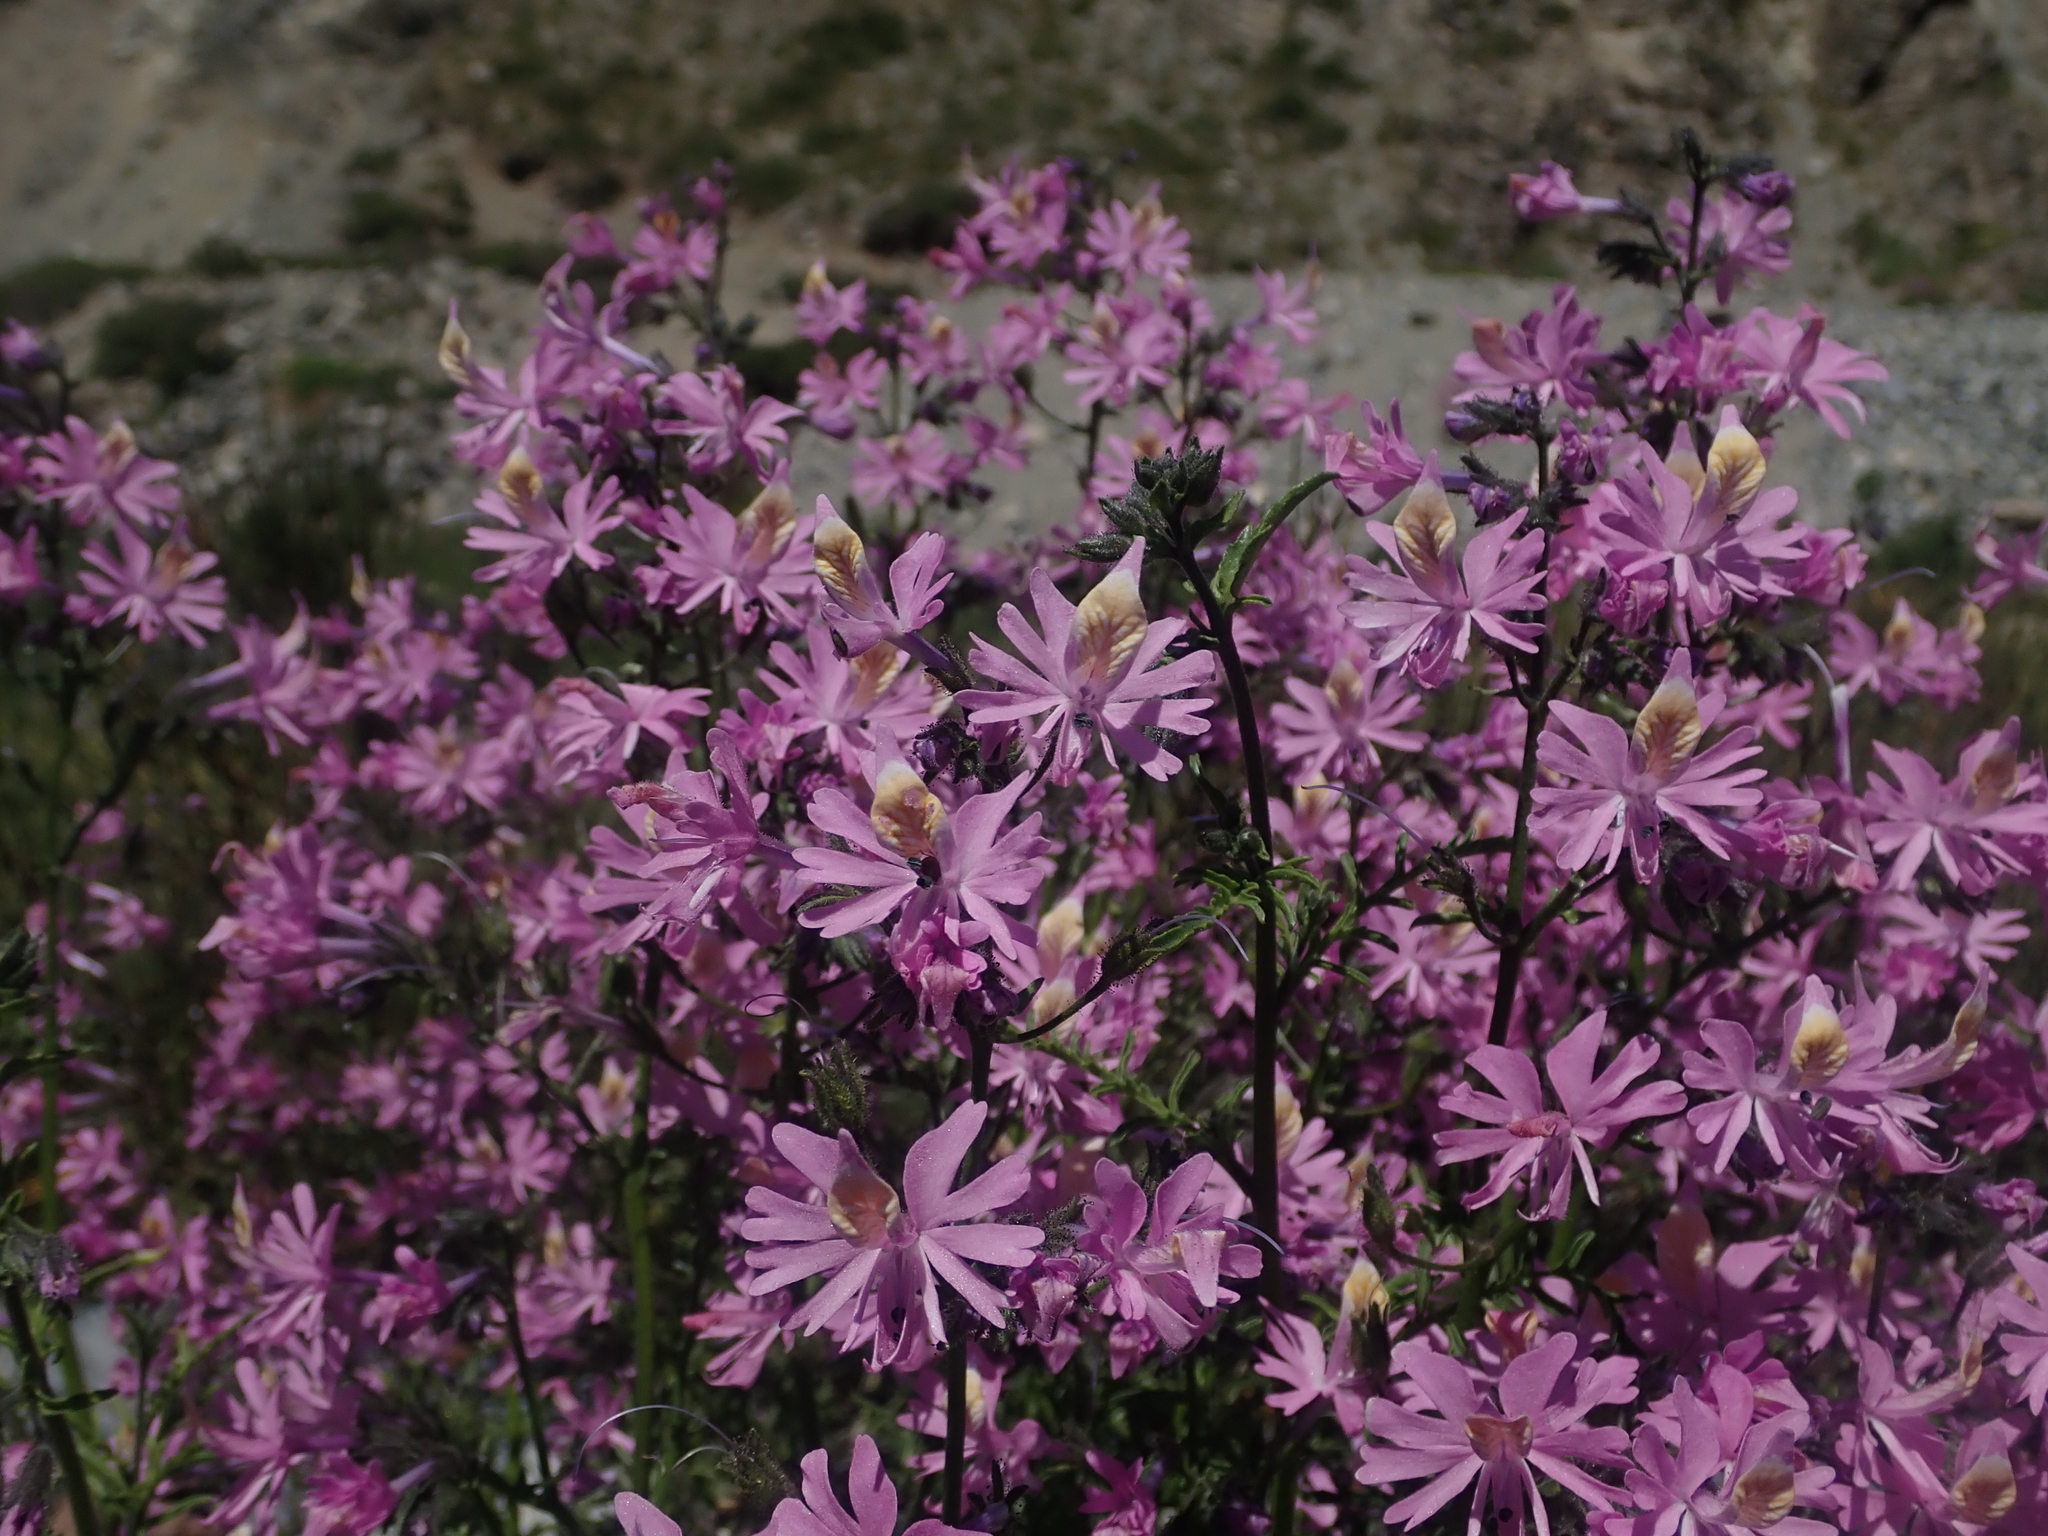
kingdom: Plantae
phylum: Tracheophyta
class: Magnoliopsida
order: Solanales
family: Solanaceae
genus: Schizanthus
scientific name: Schizanthus hookeri
